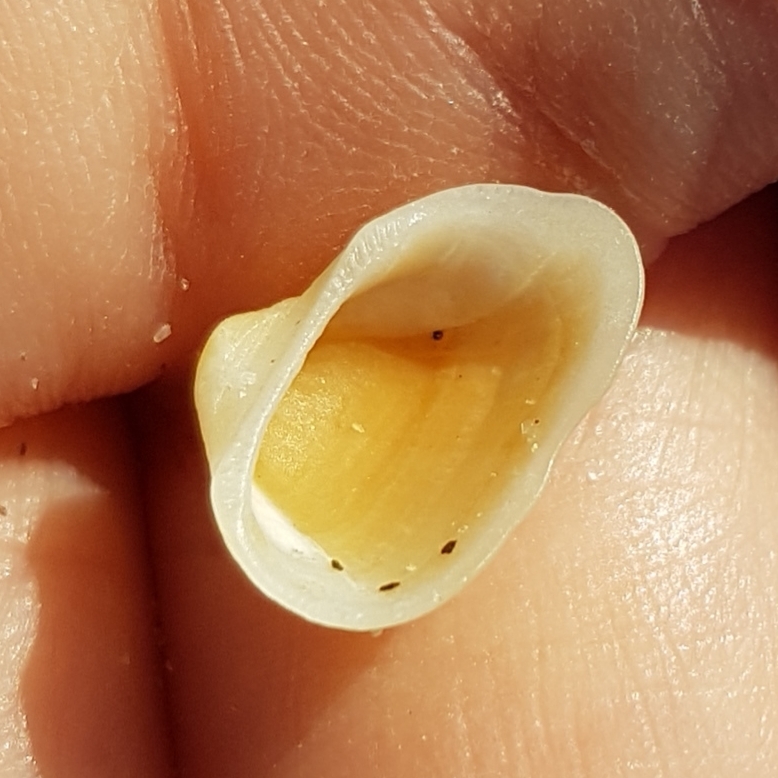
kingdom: Animalia
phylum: Mollusca
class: Bivalvia
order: Arcida
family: Noetiidae
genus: Striarca
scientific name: Striarca lactea
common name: Milky-white ark
